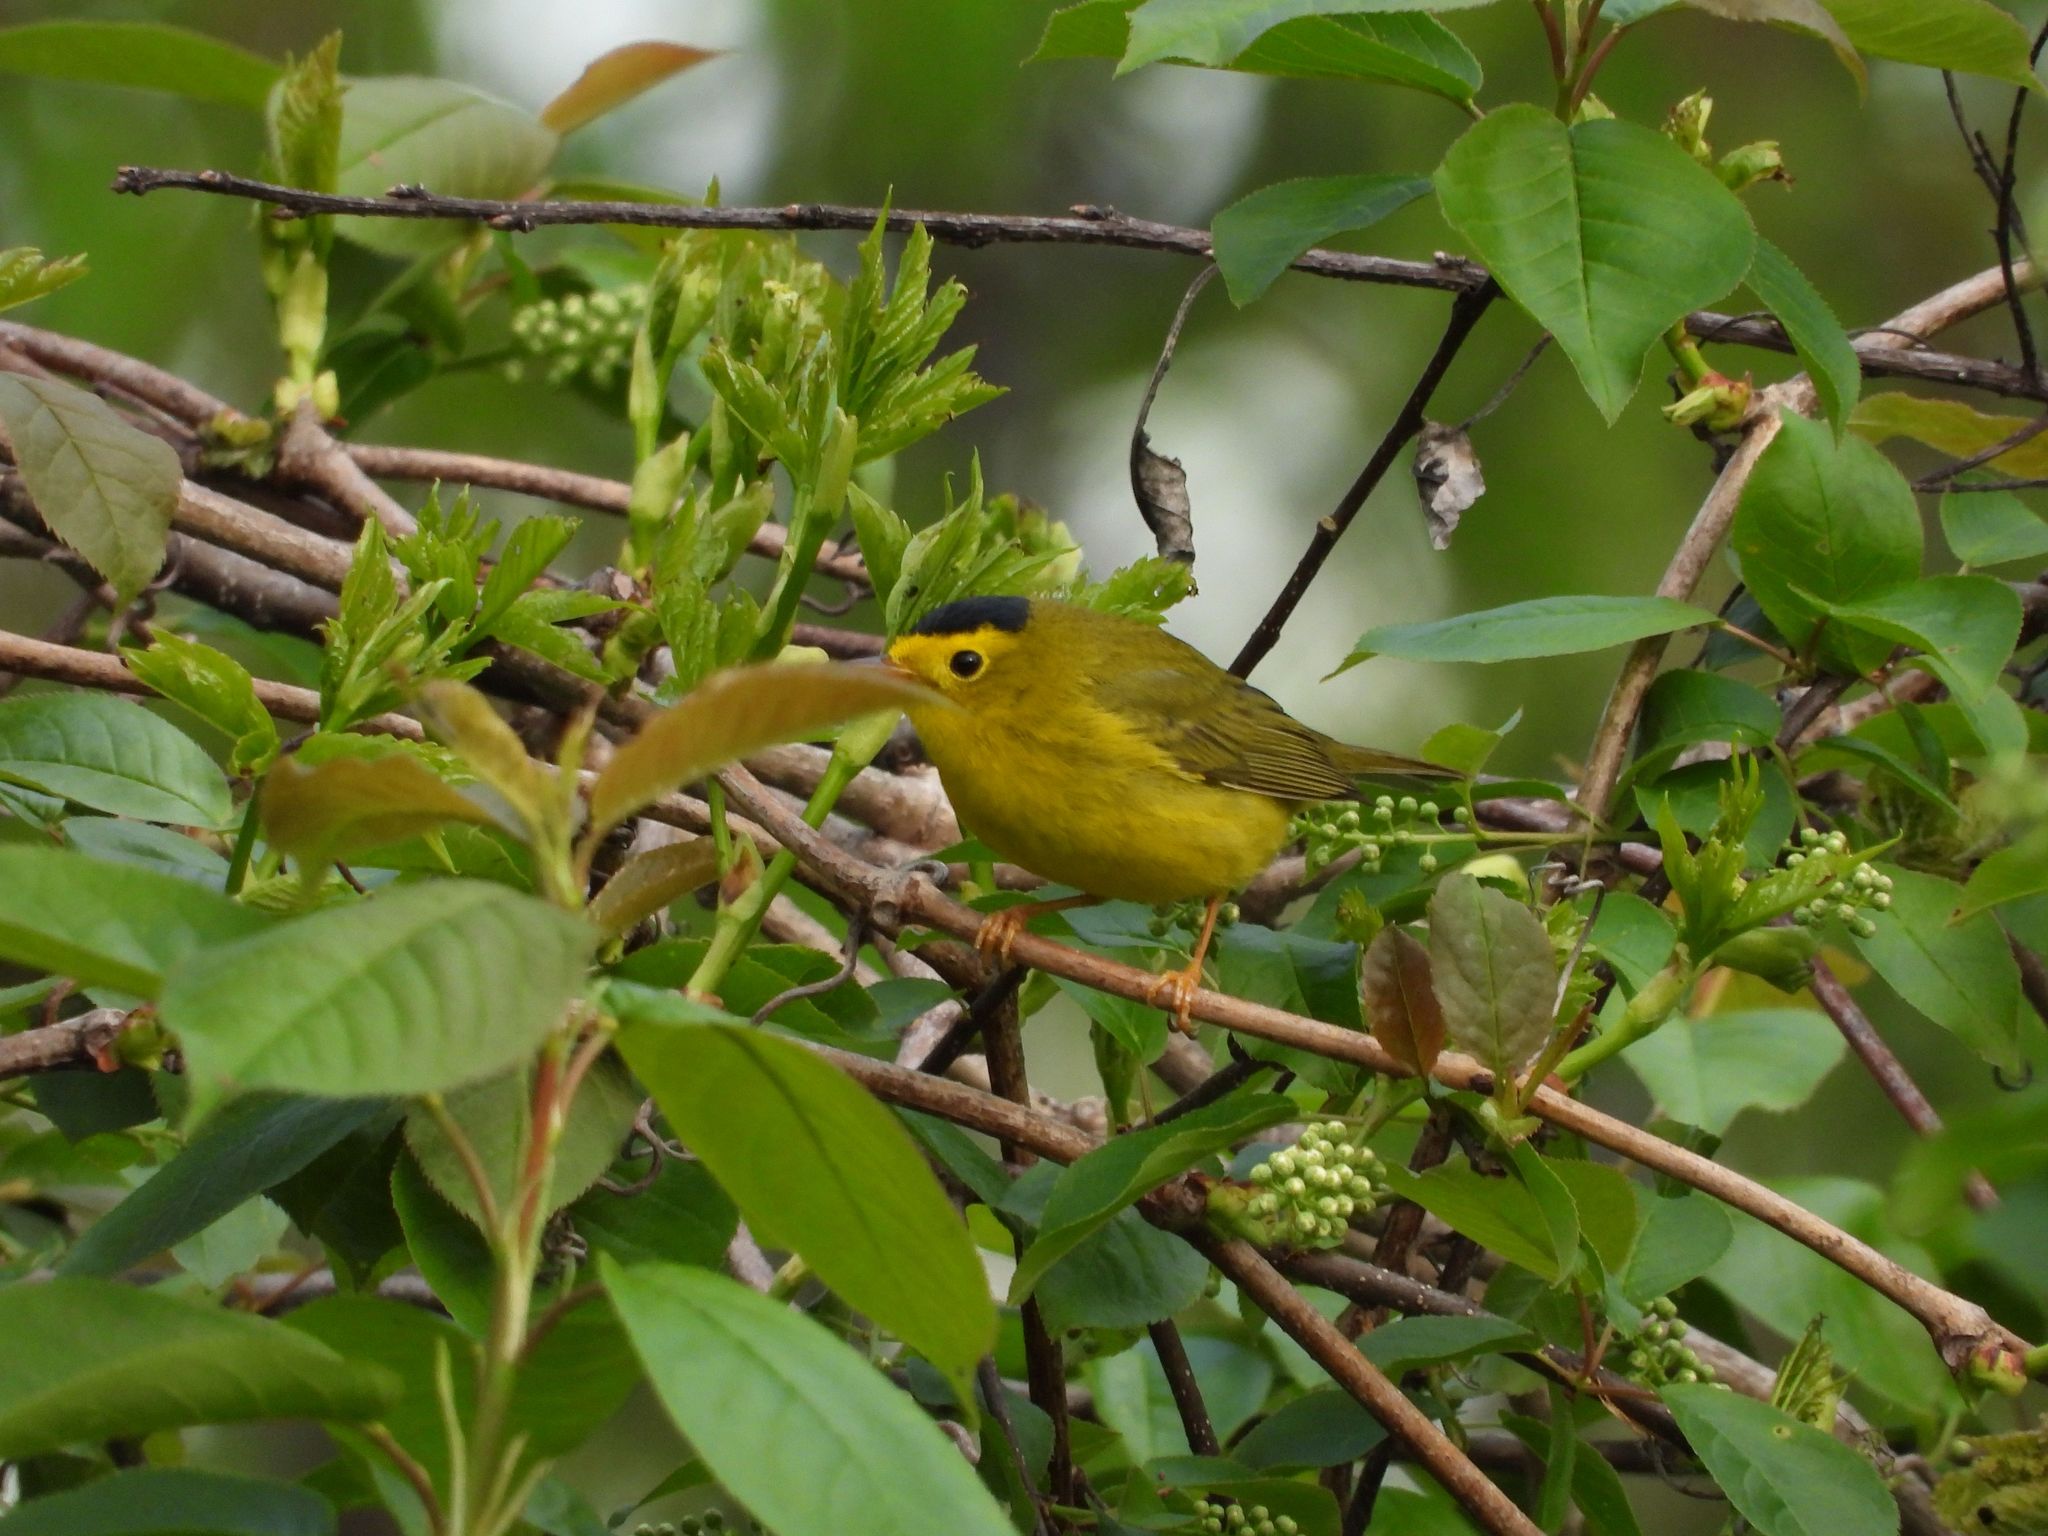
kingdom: Animalia
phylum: Chordata
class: Aves
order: Passeriformes
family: Parulidae
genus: Cardellina
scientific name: Cardellina pusilla
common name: Wilson's warbler
